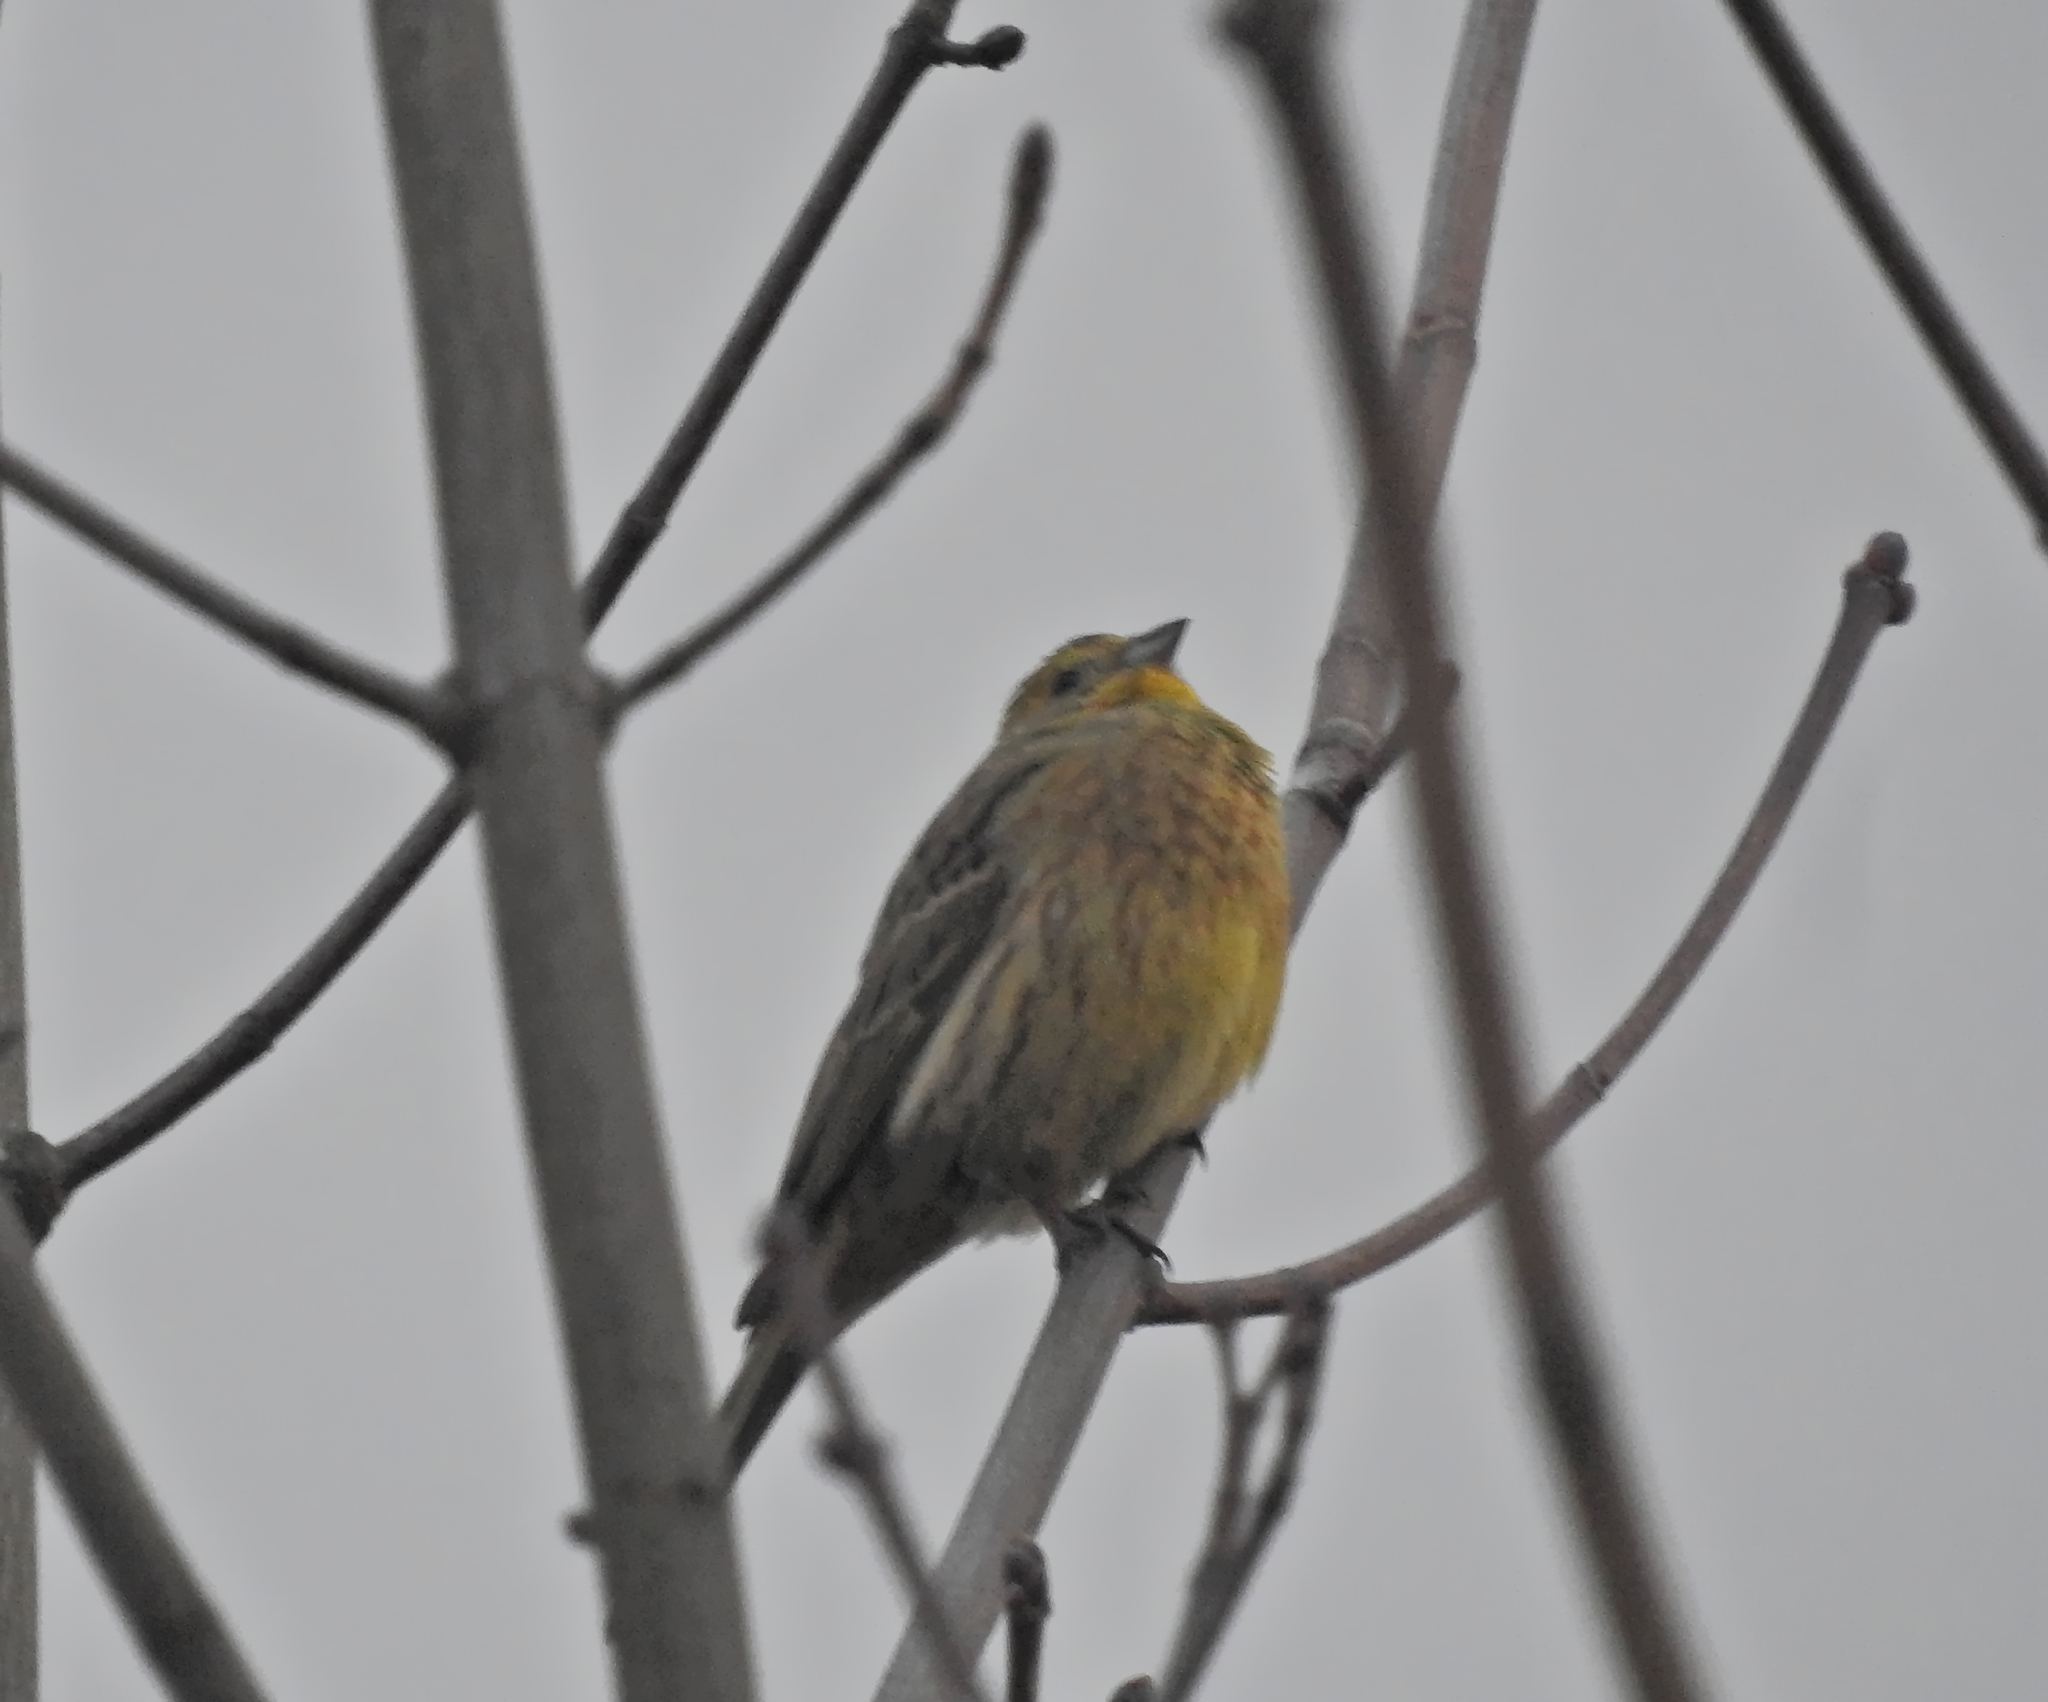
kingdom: Animalia
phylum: Chordata
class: Aves
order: Passeriformes
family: Emberizidae
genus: Emberiza
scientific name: Emberiza citrinella
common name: Yellowhammer
